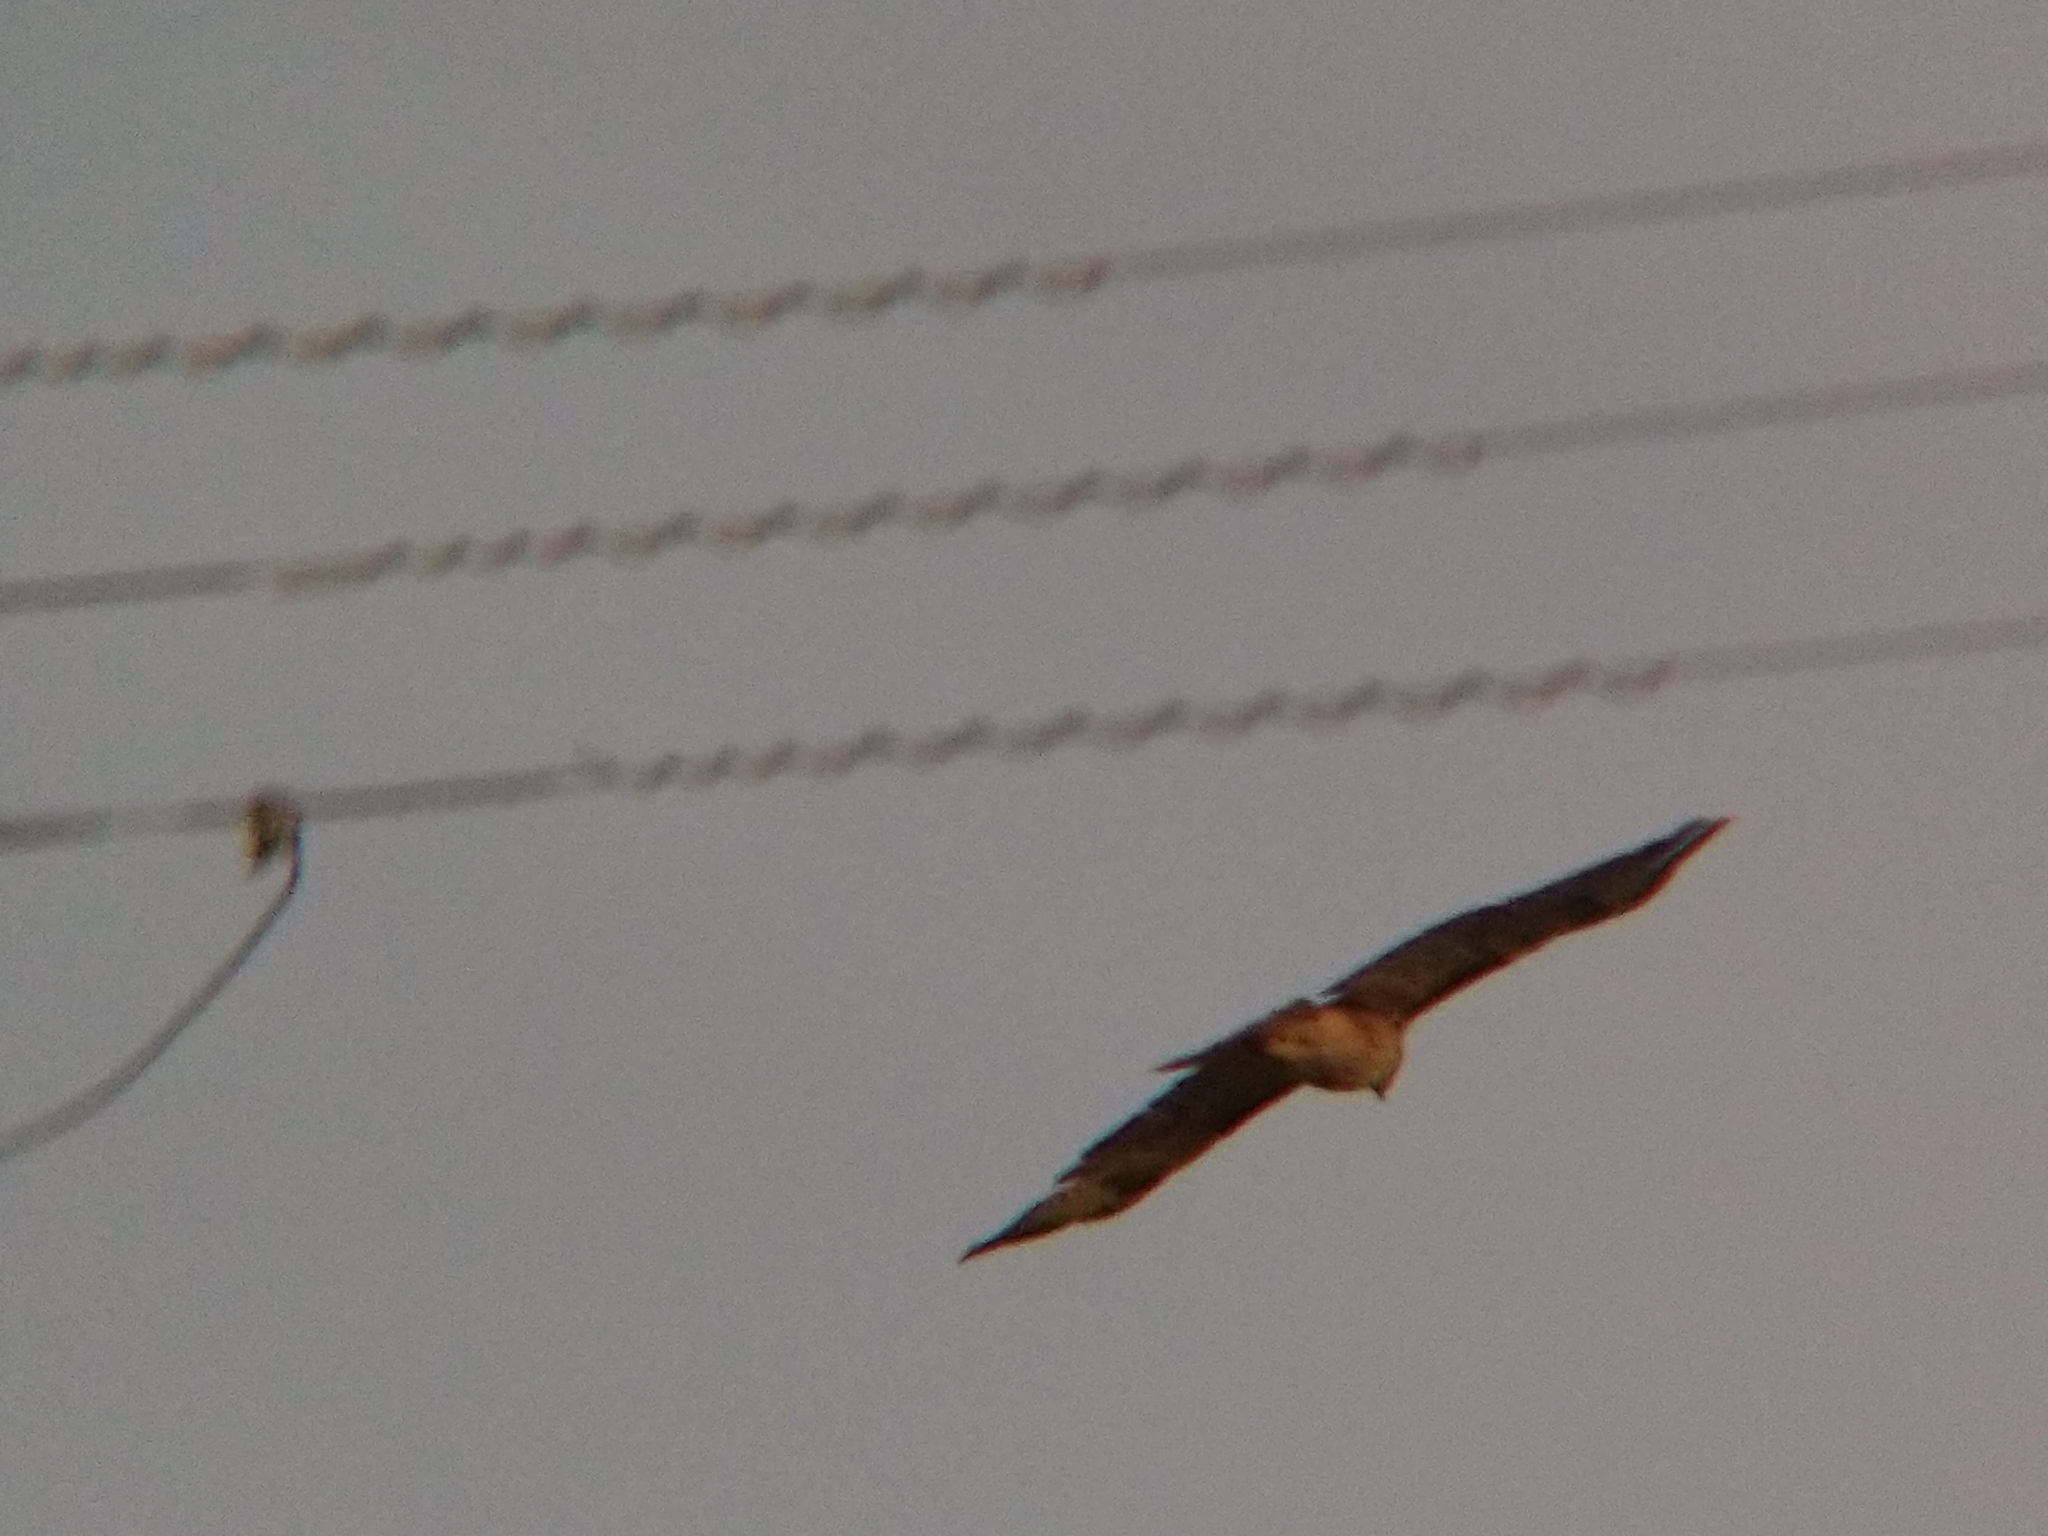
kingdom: Animalia
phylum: Chordata
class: Aves
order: Accipitriformes
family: Accipitridae
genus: Buteo
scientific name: Buteo jamaicensis
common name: Red-tailed hawk
